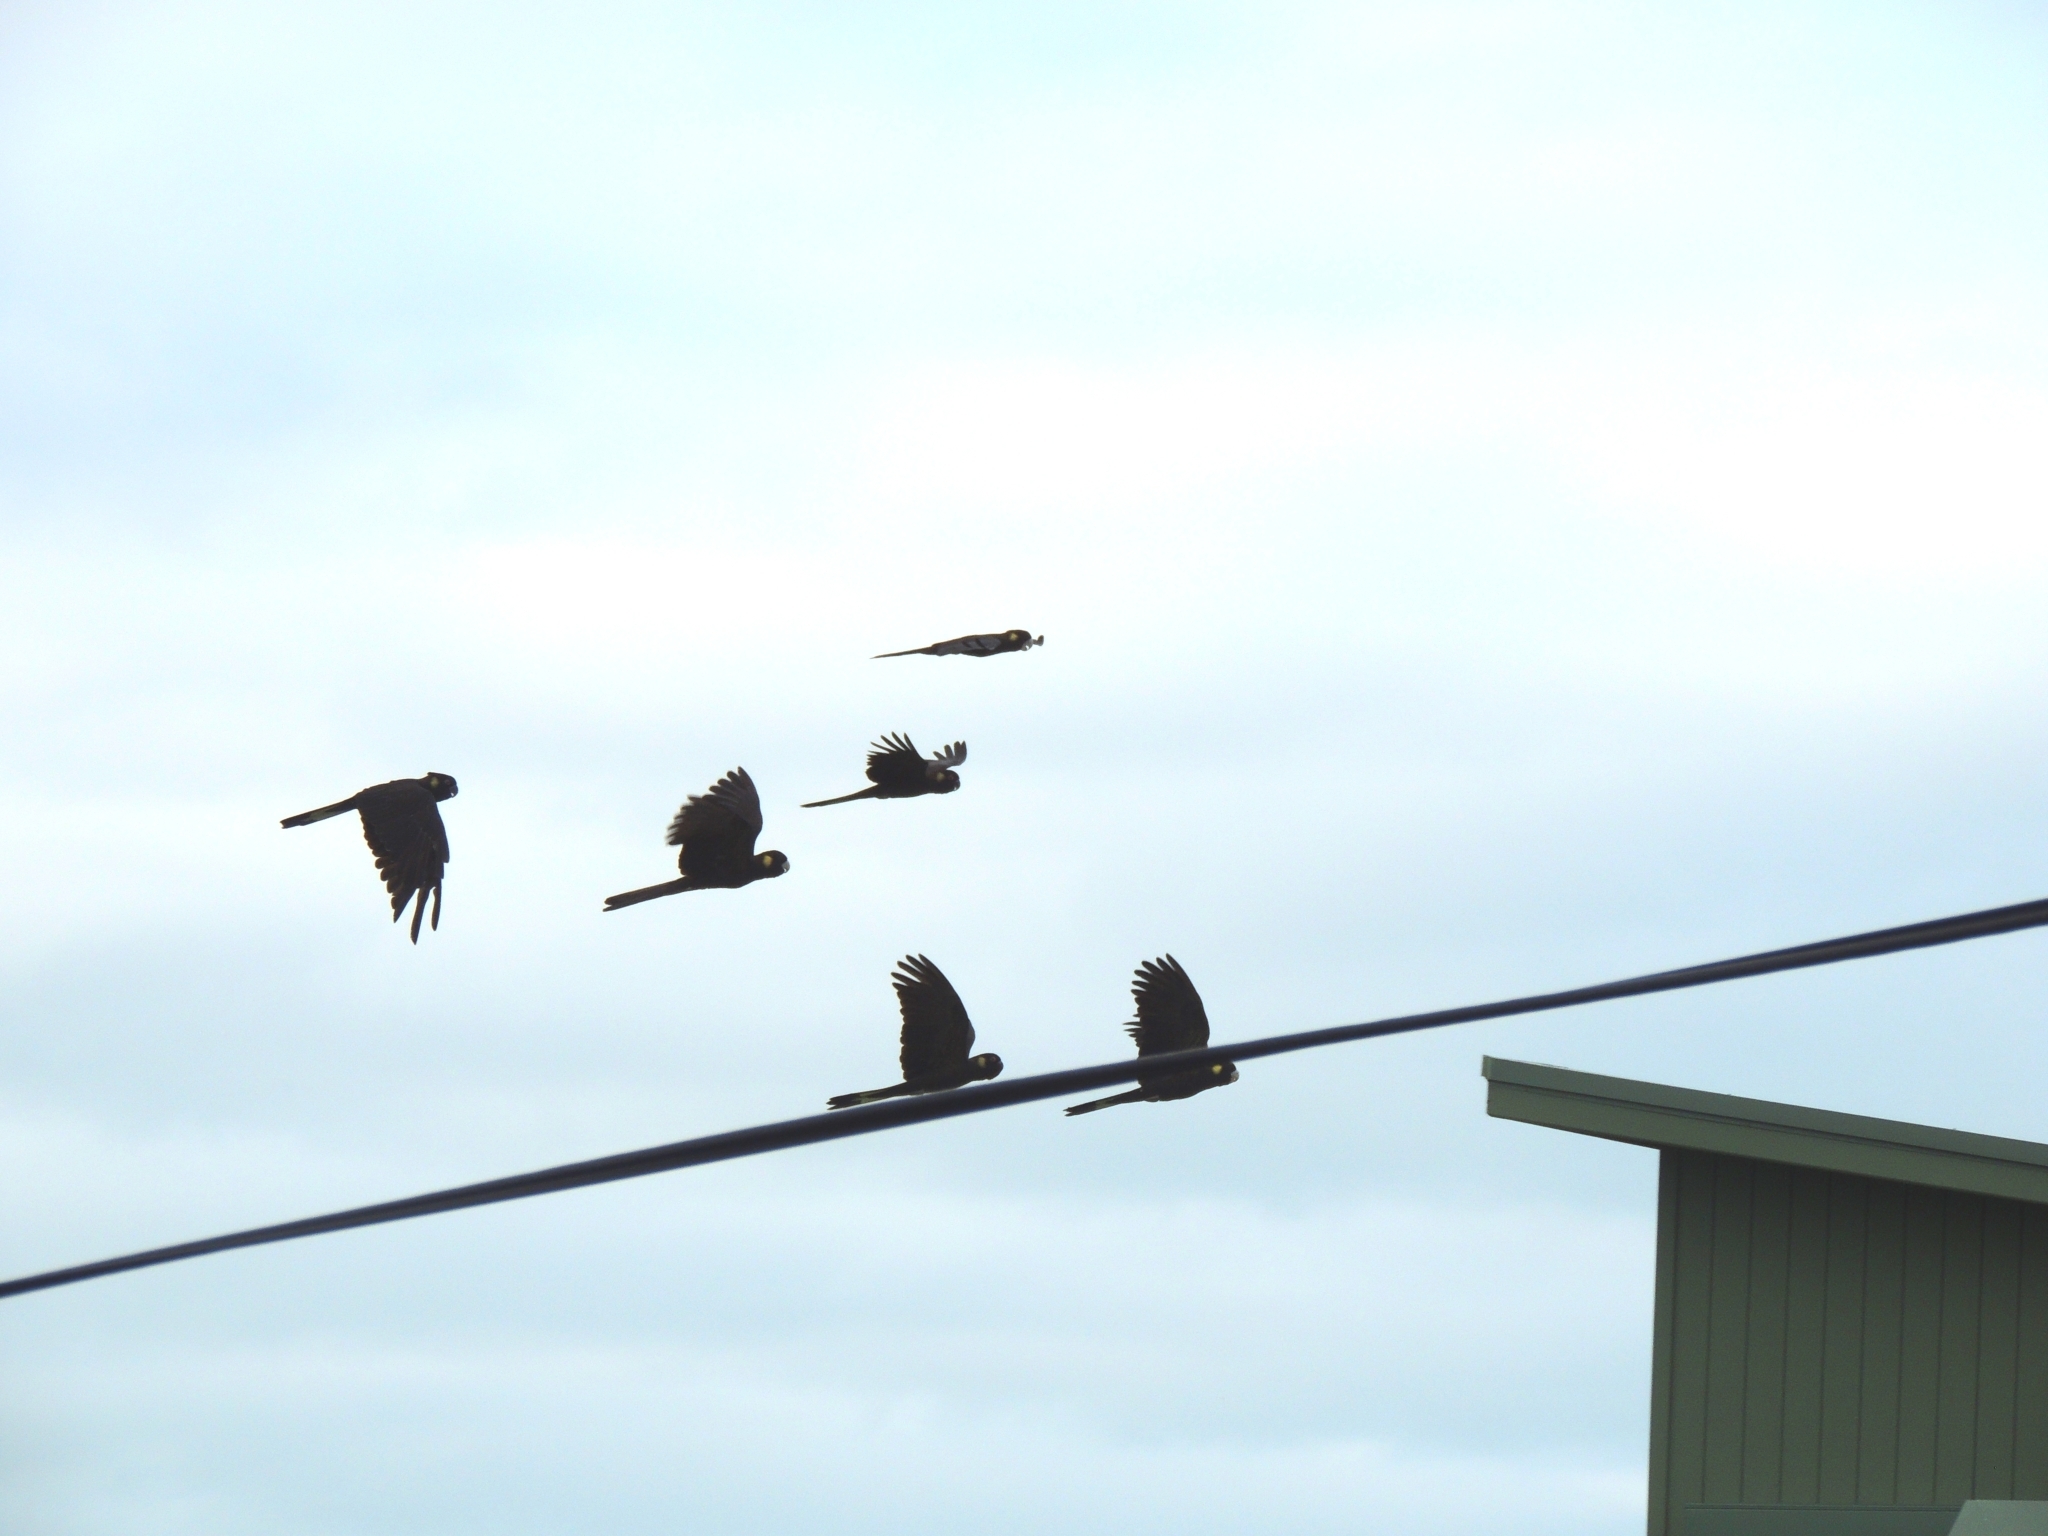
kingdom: Animalia
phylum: Chordata
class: Aves
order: Psittaciformes
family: Cacatuidae
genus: Zanda
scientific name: Zanda funerea
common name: Yellow-tailed black-cockatoo
